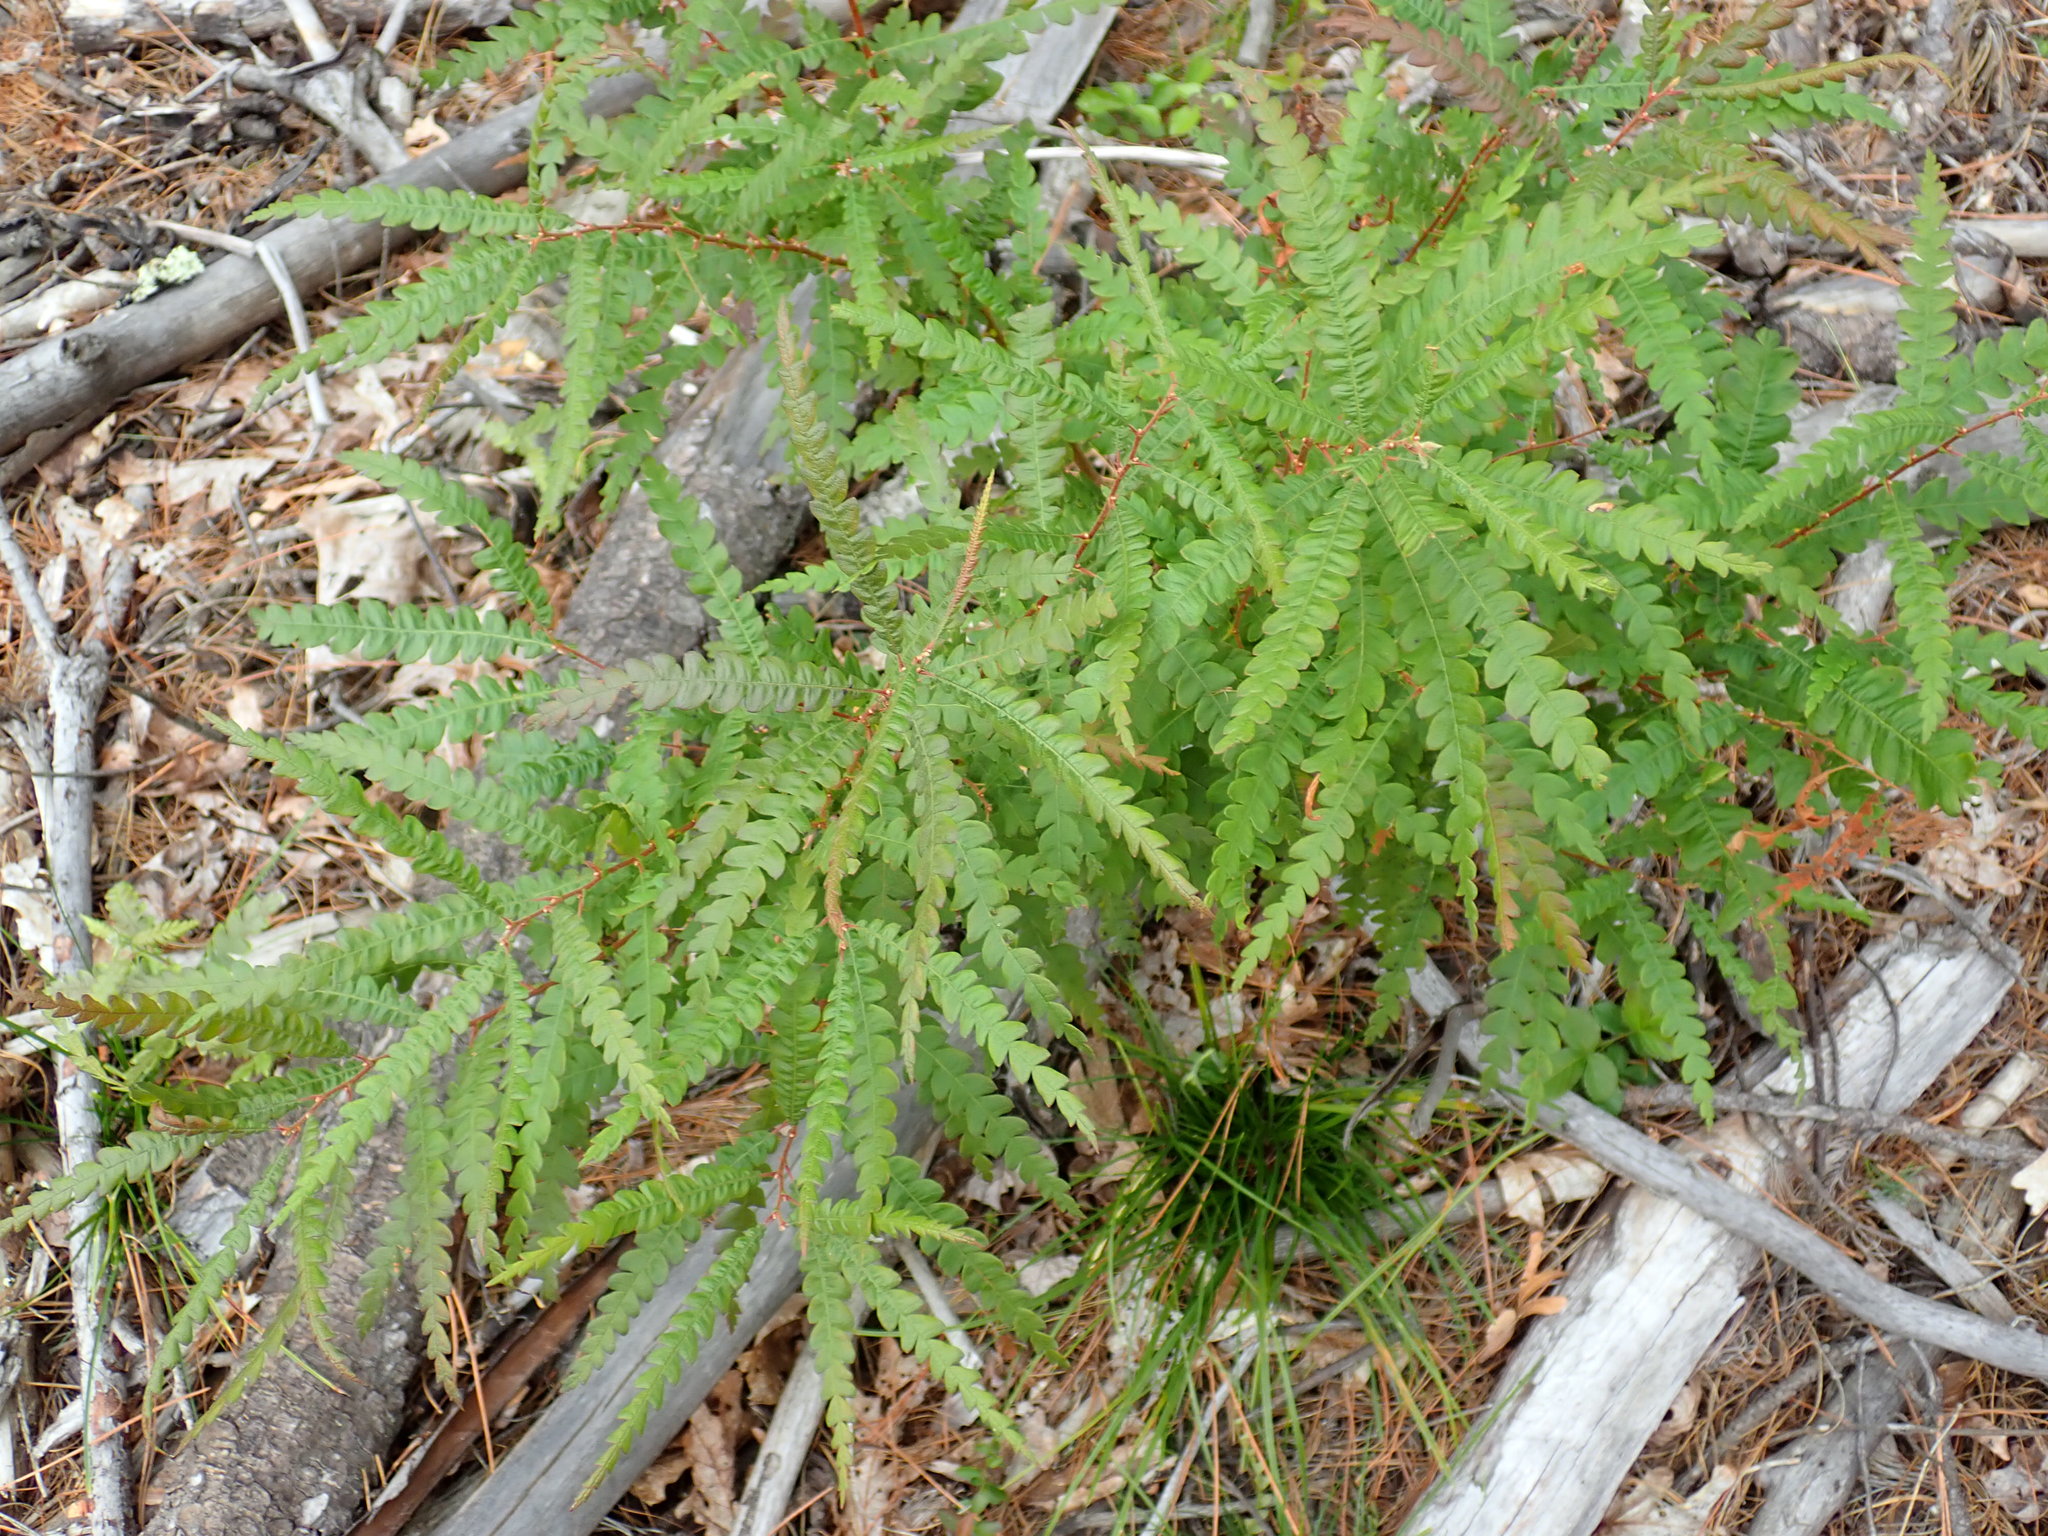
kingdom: Plantae
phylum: Tracheophyta
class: Magnoliopsida
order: Fagales
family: Myricaceae
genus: Comptonia
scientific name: Comptonia peregrina
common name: Sweet-fern
